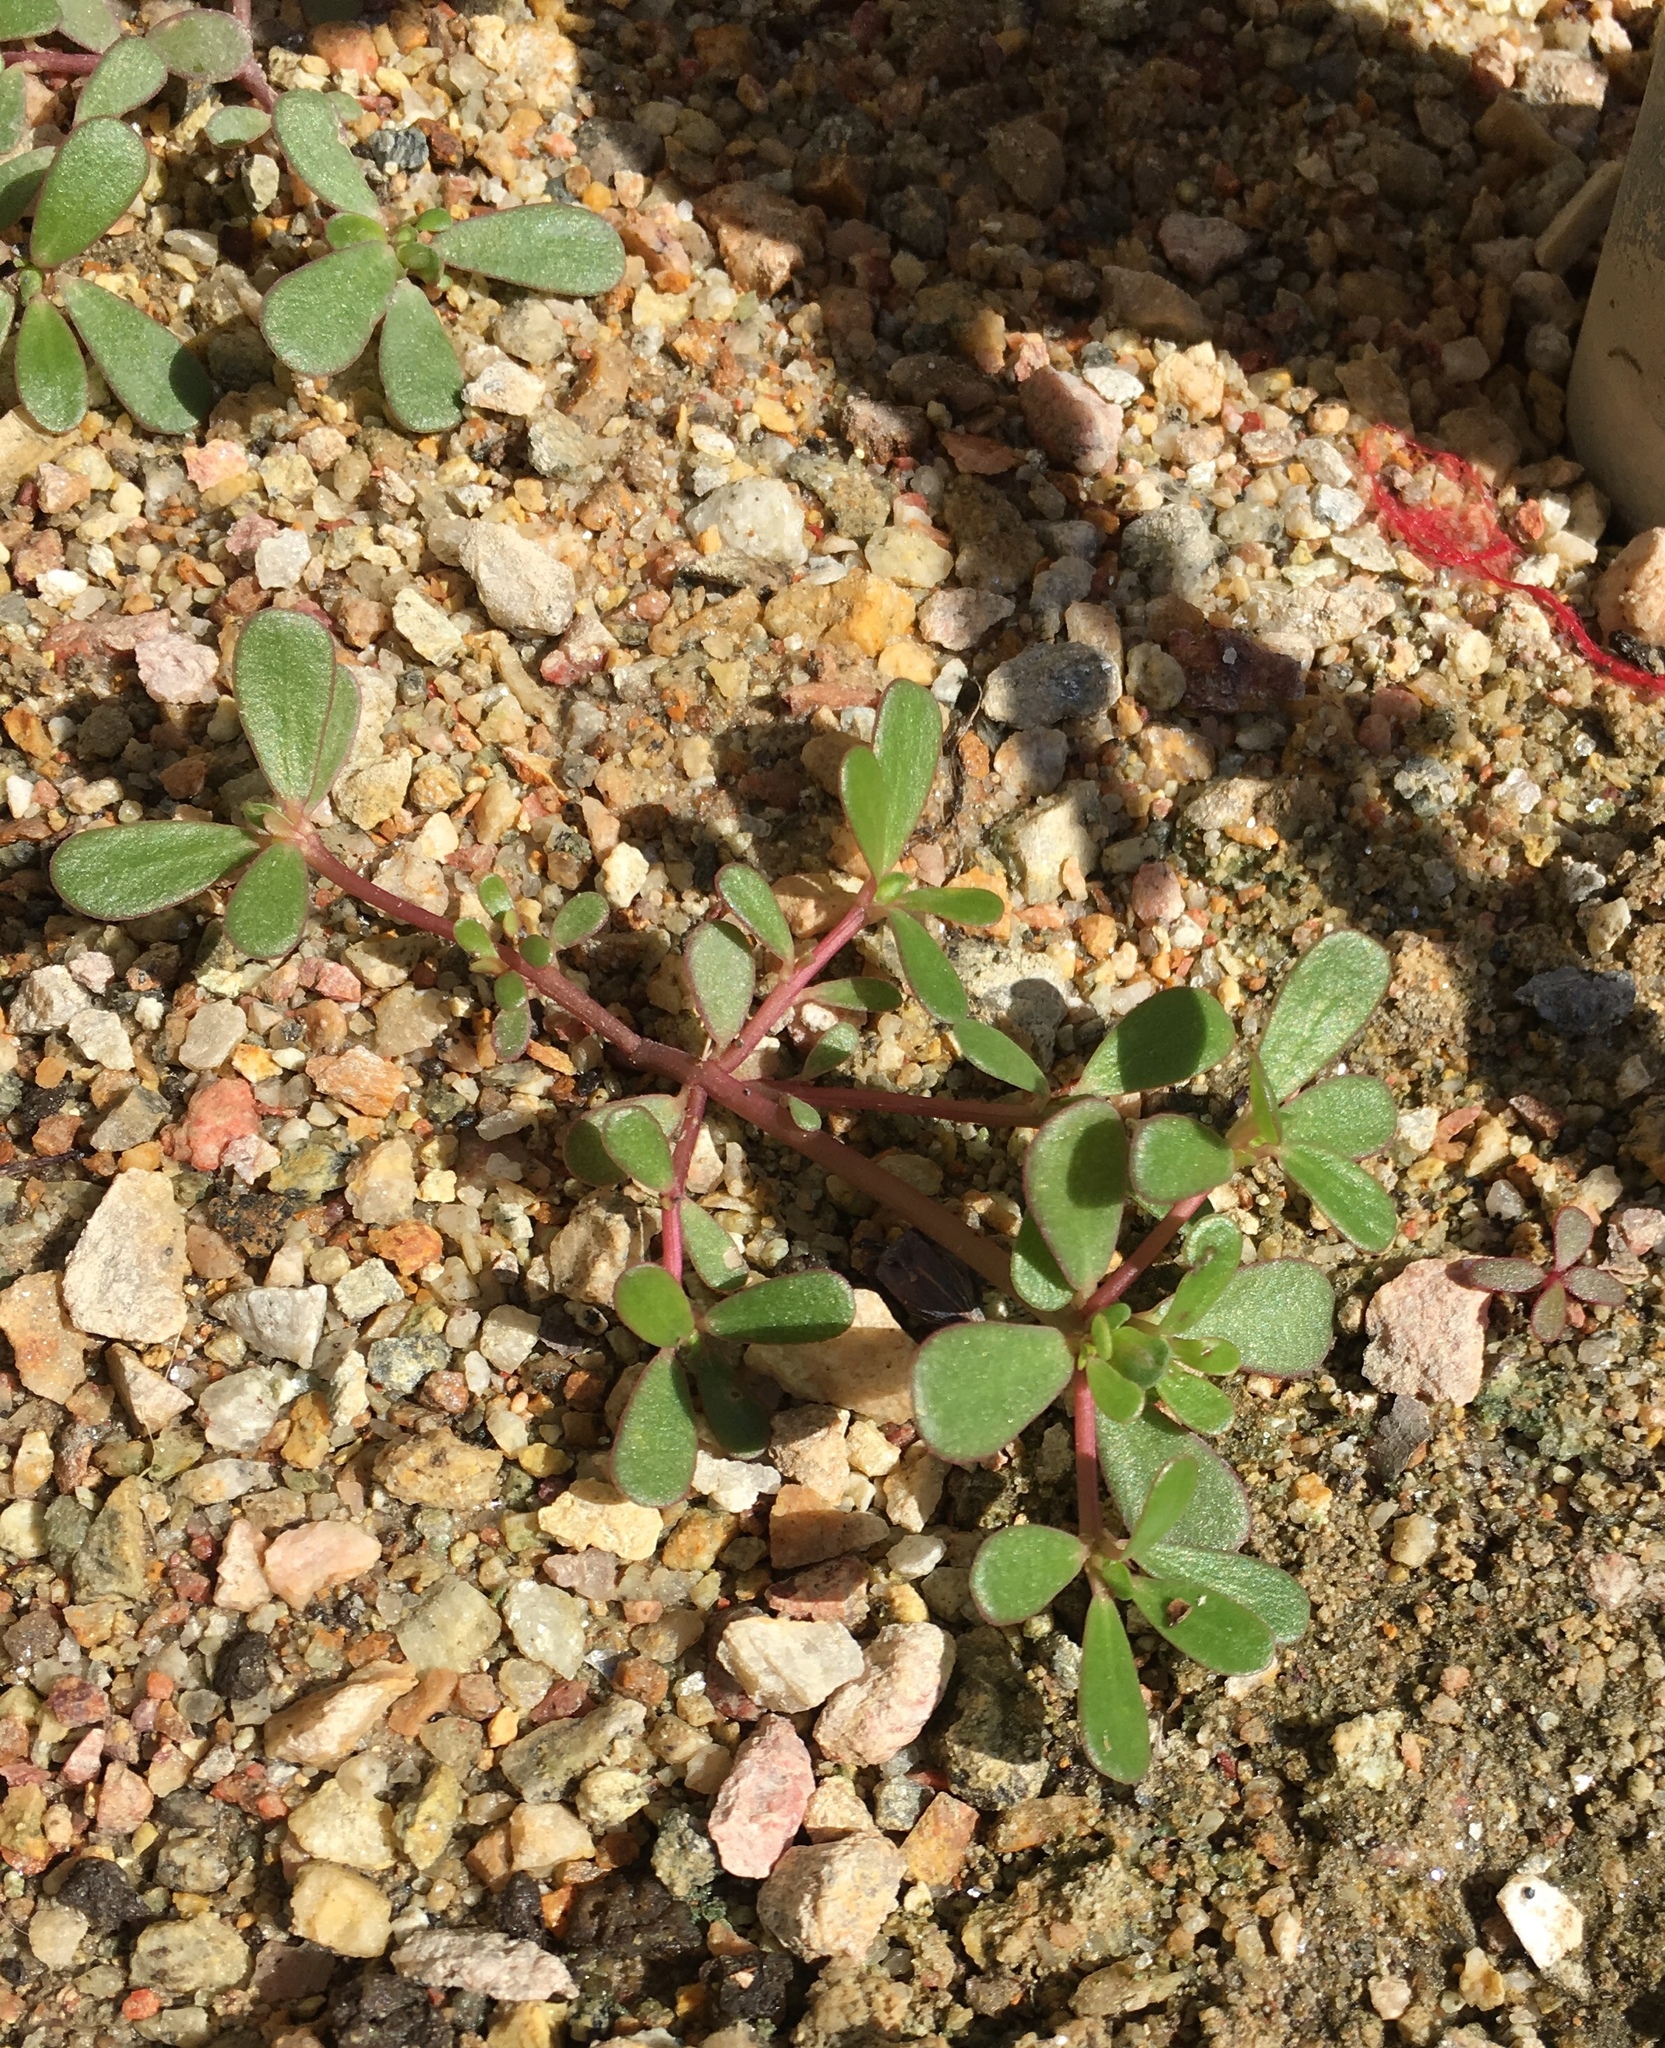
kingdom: Plantae
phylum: Tracheophyta
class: Magnoliopsida
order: Caryophyllales
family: Portulacaceae
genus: Portulaca
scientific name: Portulaca oleracea
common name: Common purslane
